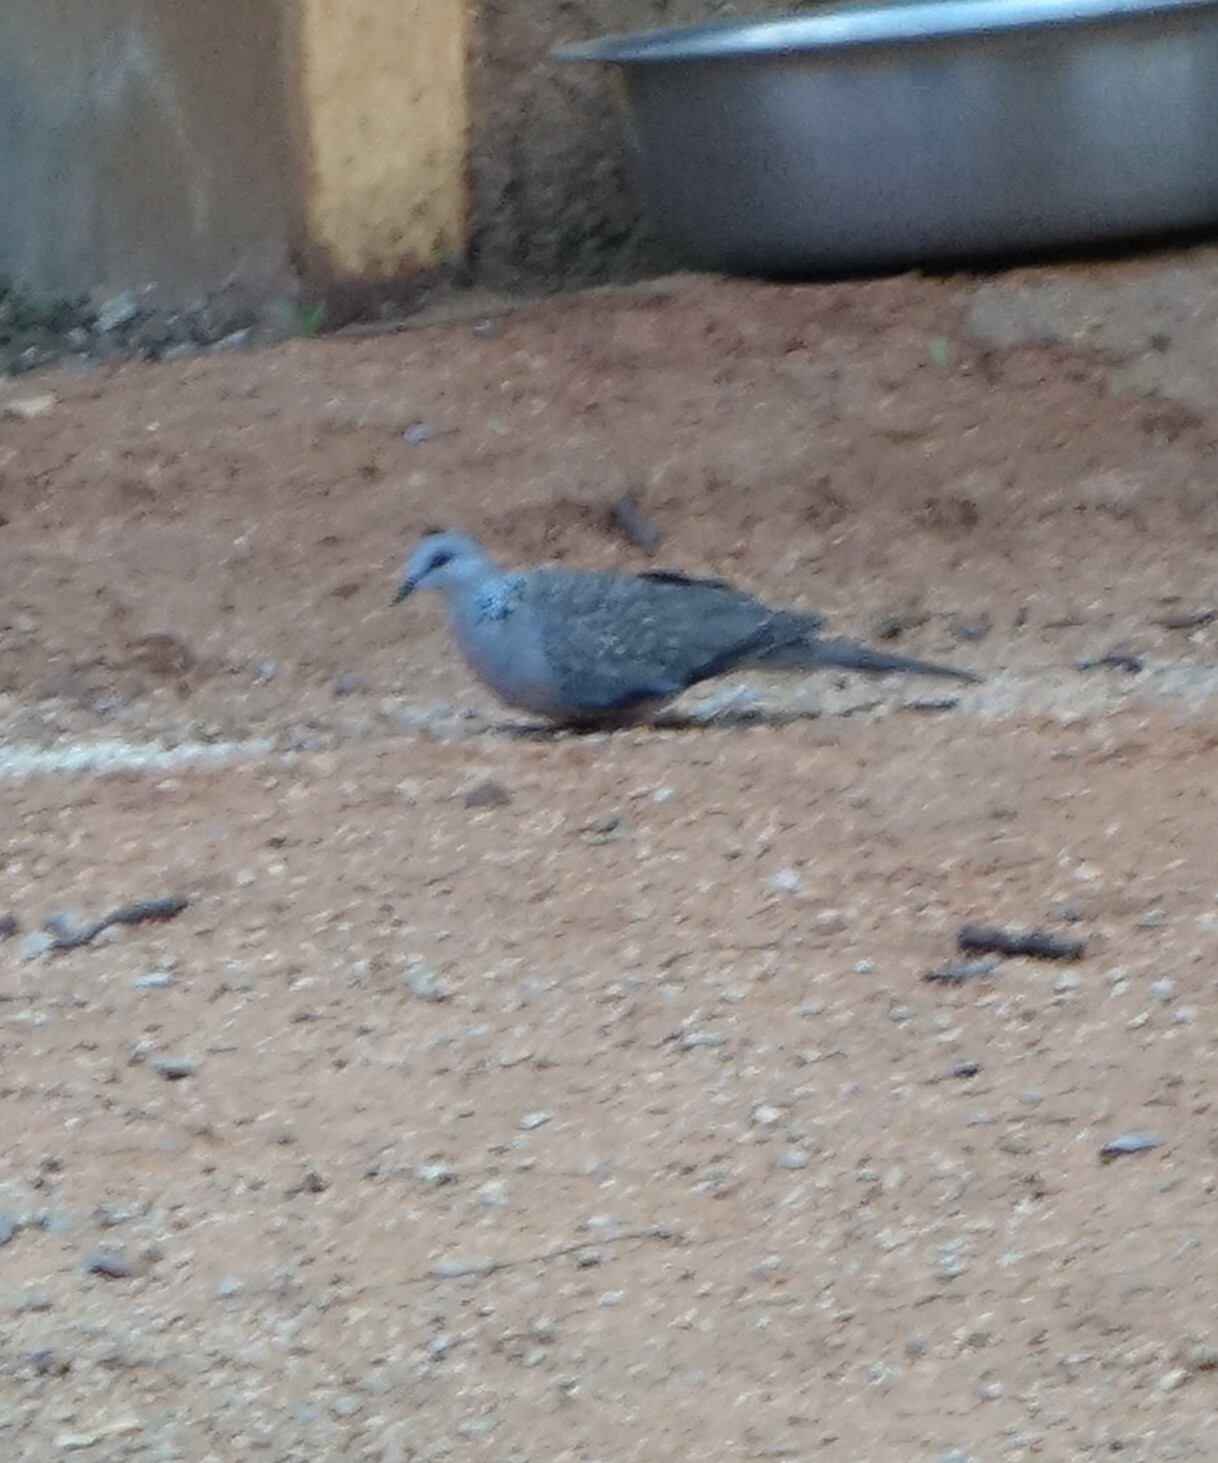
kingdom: Animalia
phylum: Chordata
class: Aves
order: Columbiformes
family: Columbidae
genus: Spilopelia
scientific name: Spilopelia chinensis
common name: Spotted dove
